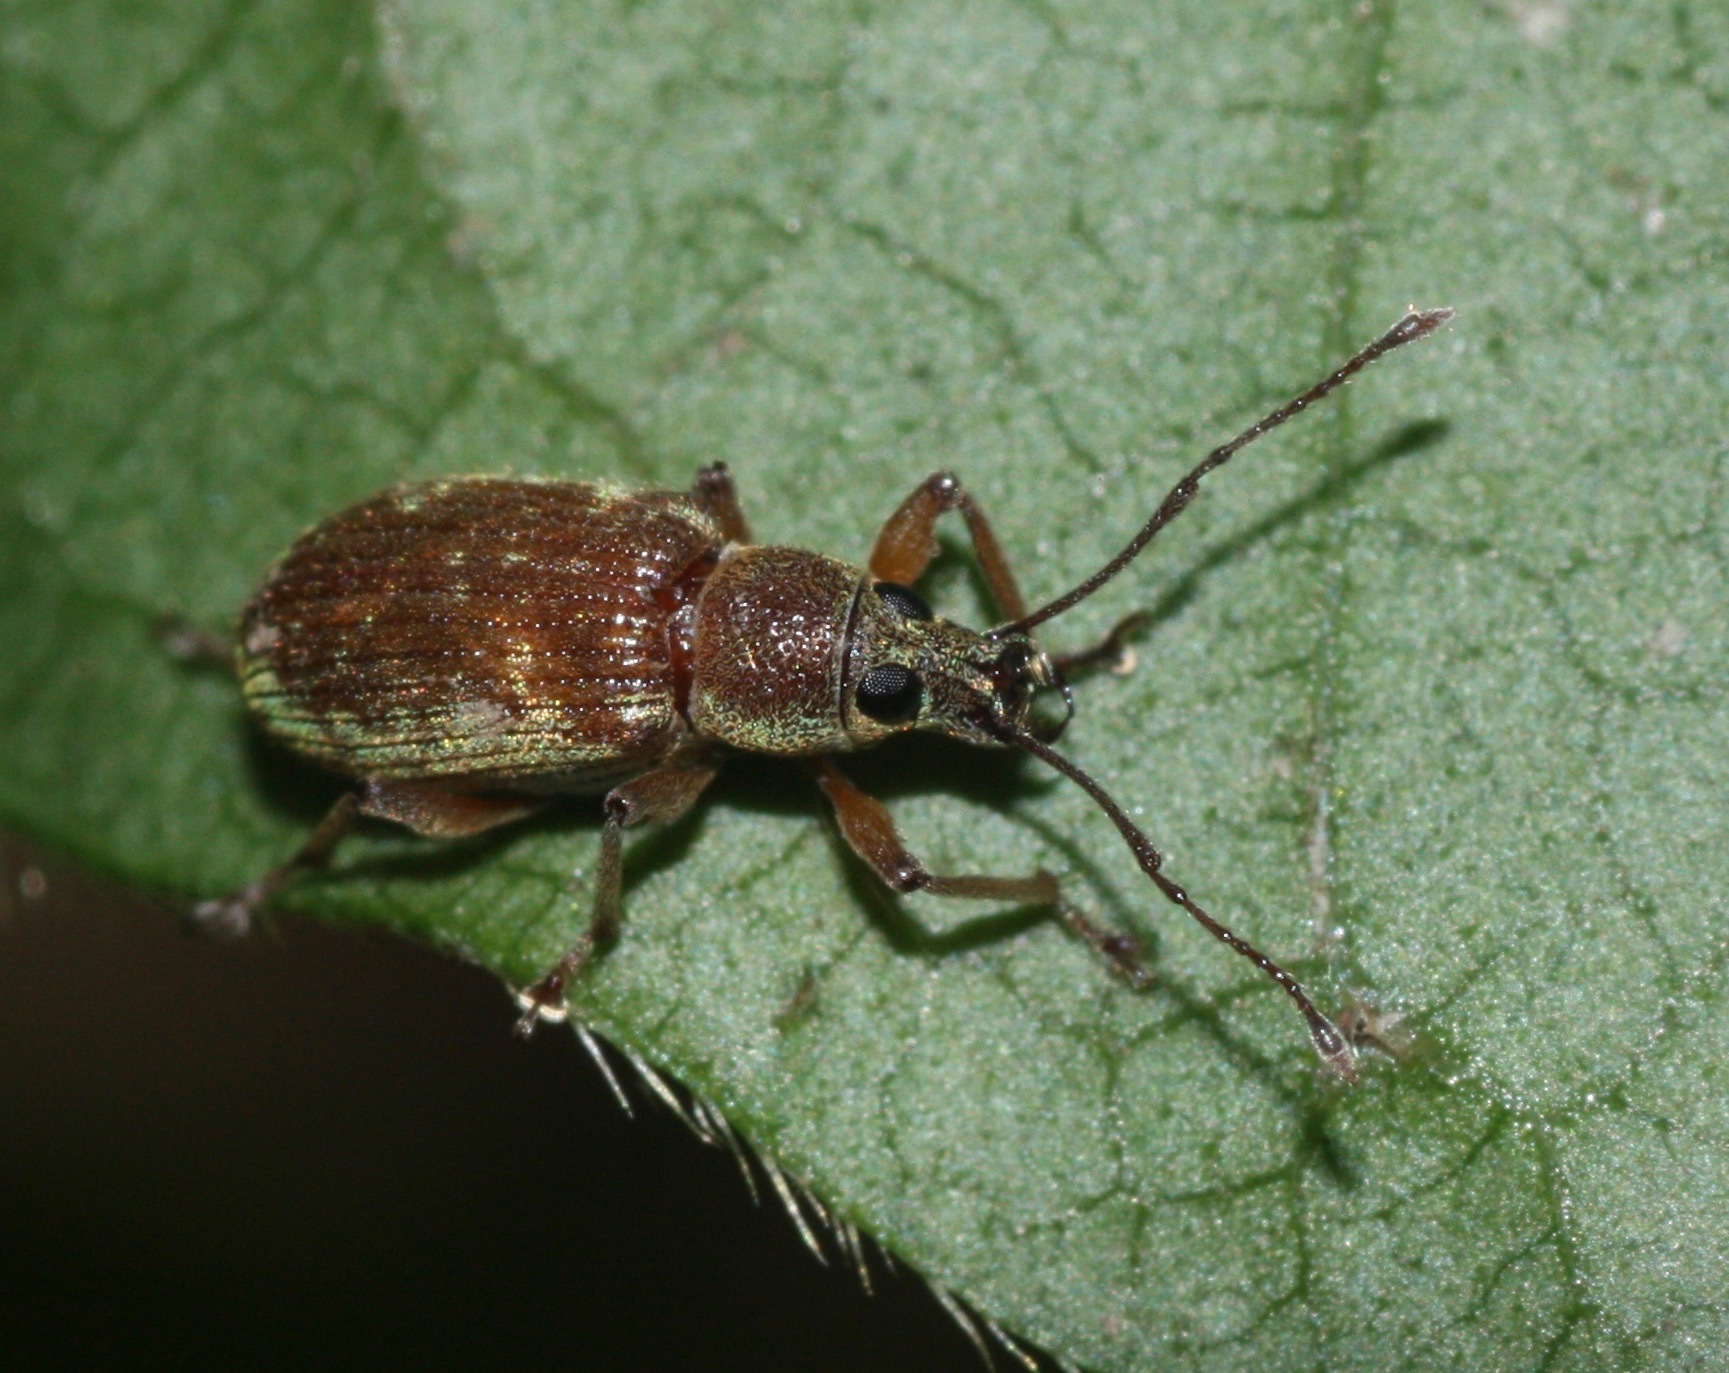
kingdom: Animalia
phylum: Arthropoda
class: Insecta
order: Coleoptera
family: Curculionidae
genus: Cyrtepistomus
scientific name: Cyrtepistomus castaneus
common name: Weevil
